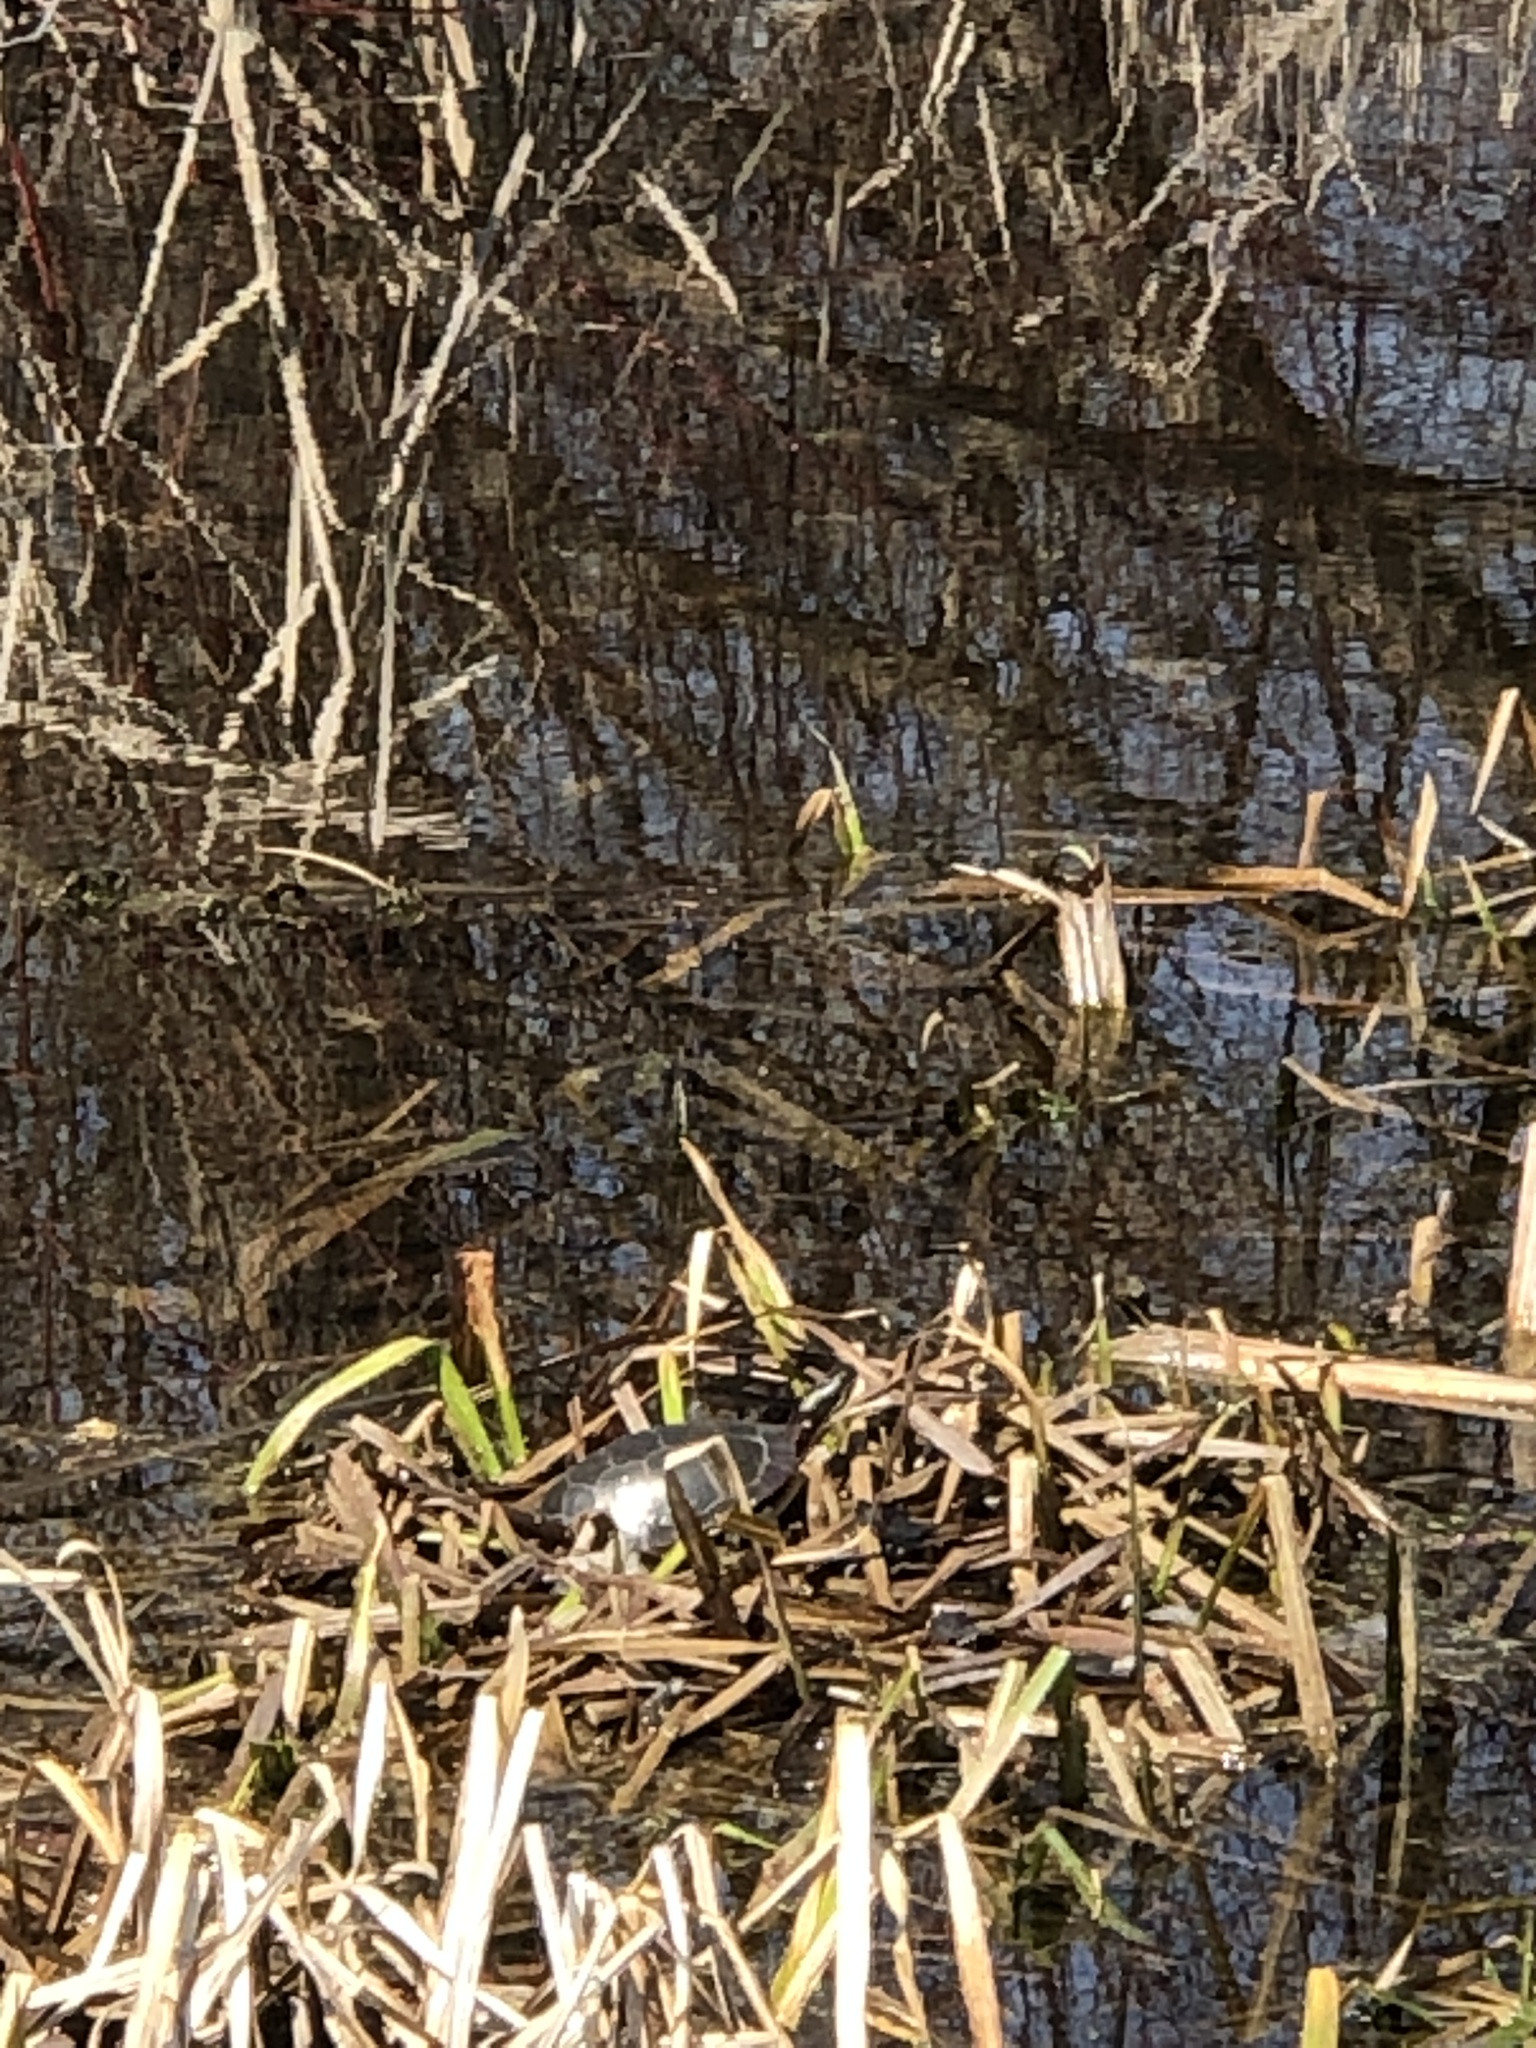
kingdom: Animalia
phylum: Chordata
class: Testudines
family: Emydidae
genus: Chrysemys
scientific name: Chrysemys picta
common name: Painted turtle
